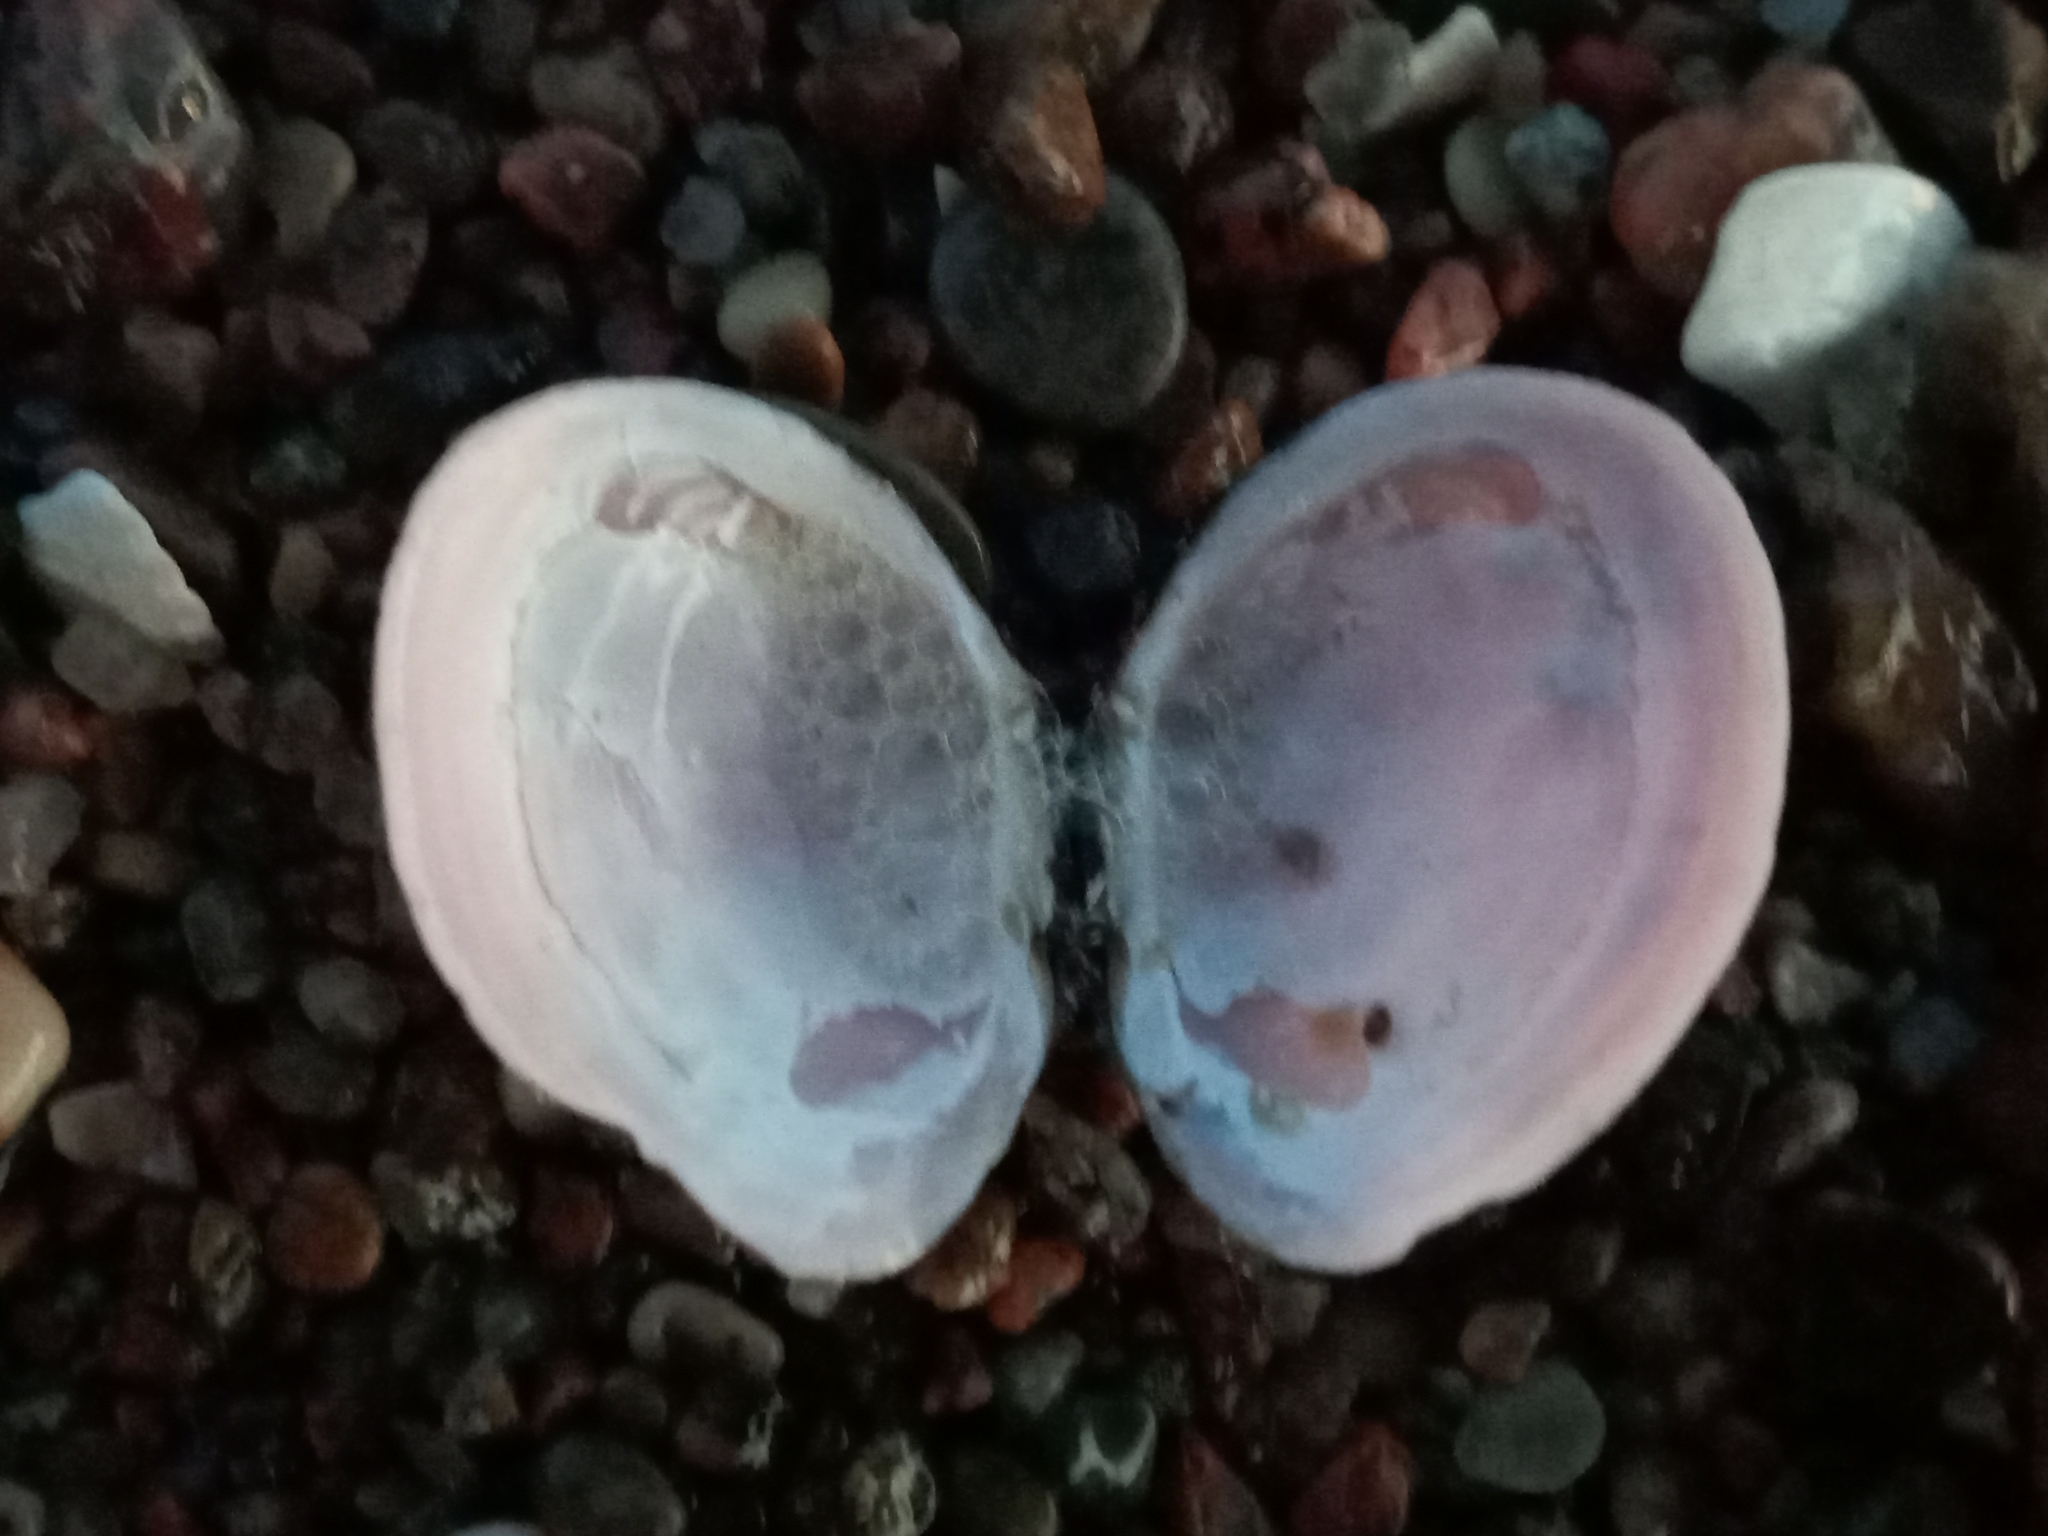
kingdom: Animalia
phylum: Mollusca
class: Bivalvia
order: Cardiida
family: Tellinidae
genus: Macoma
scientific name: Macoma balthica
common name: Baltic tellin
